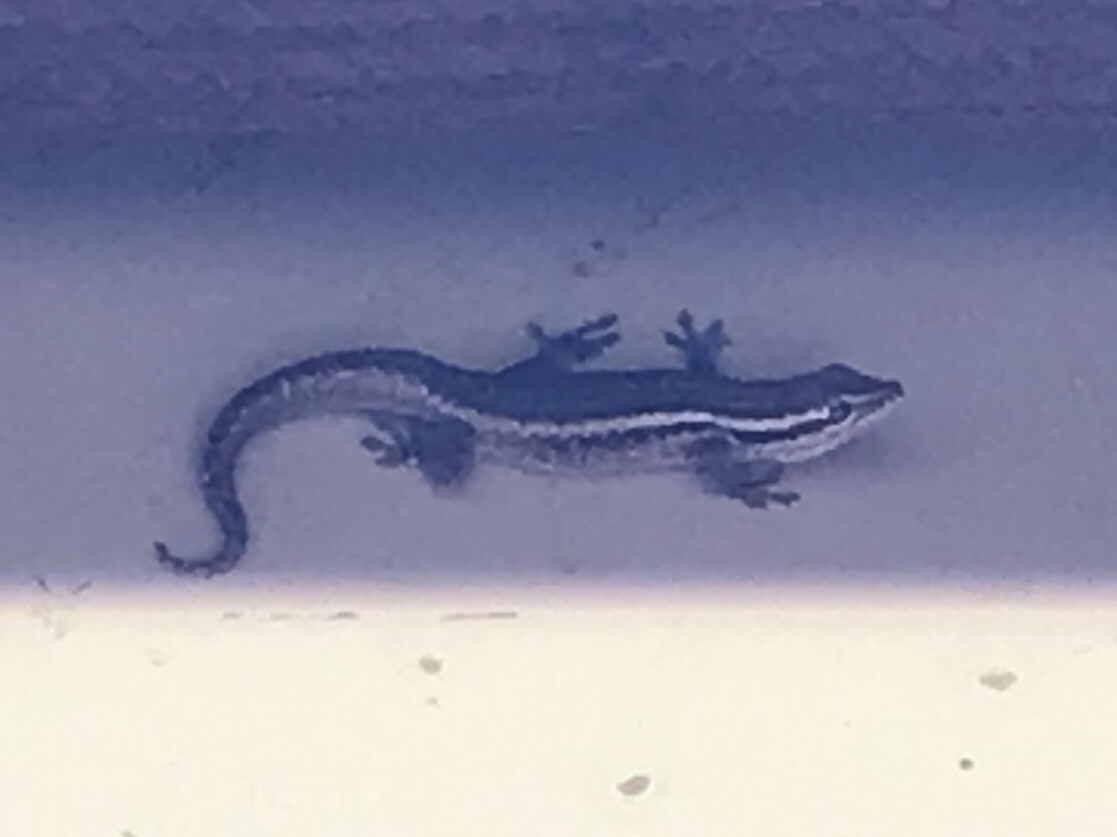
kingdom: Animalia
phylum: Chordata
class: Squamata
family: Gekkonidae
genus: Lygodactylus
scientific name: Lygodactylus capensis
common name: Cape dwarf gecko
